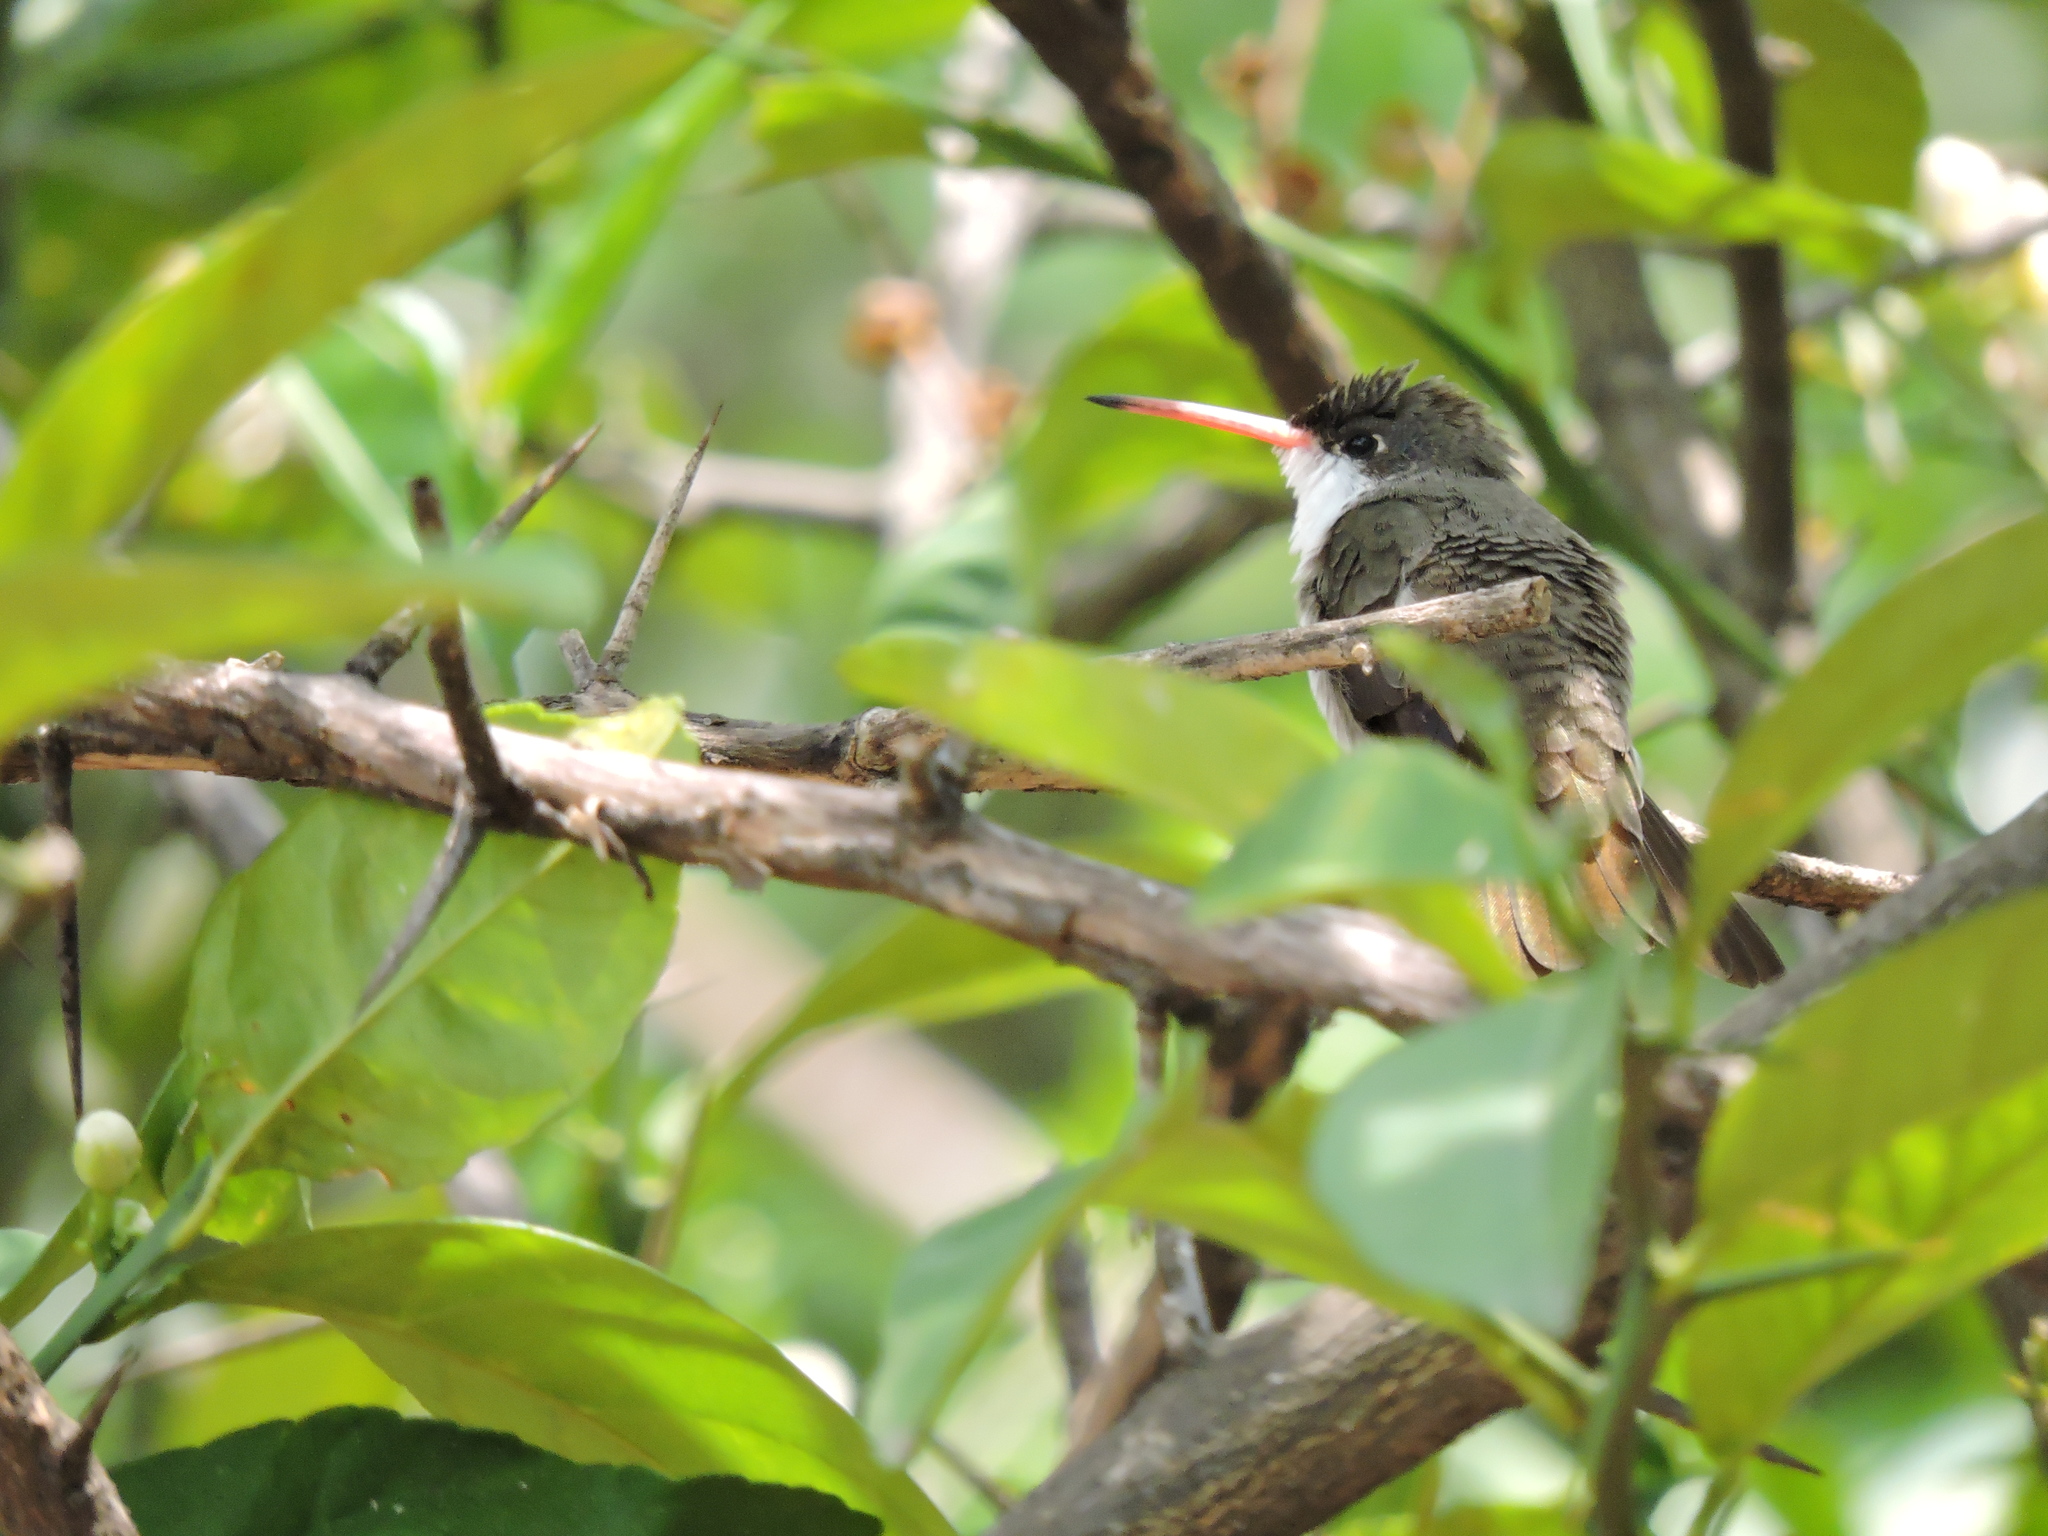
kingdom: Animalia
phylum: Chordata
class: Aves
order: Apodiformes
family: Trochilidae
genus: Leucolia
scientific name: Leucolia violiceps
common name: Violet-crowned hummingbird
